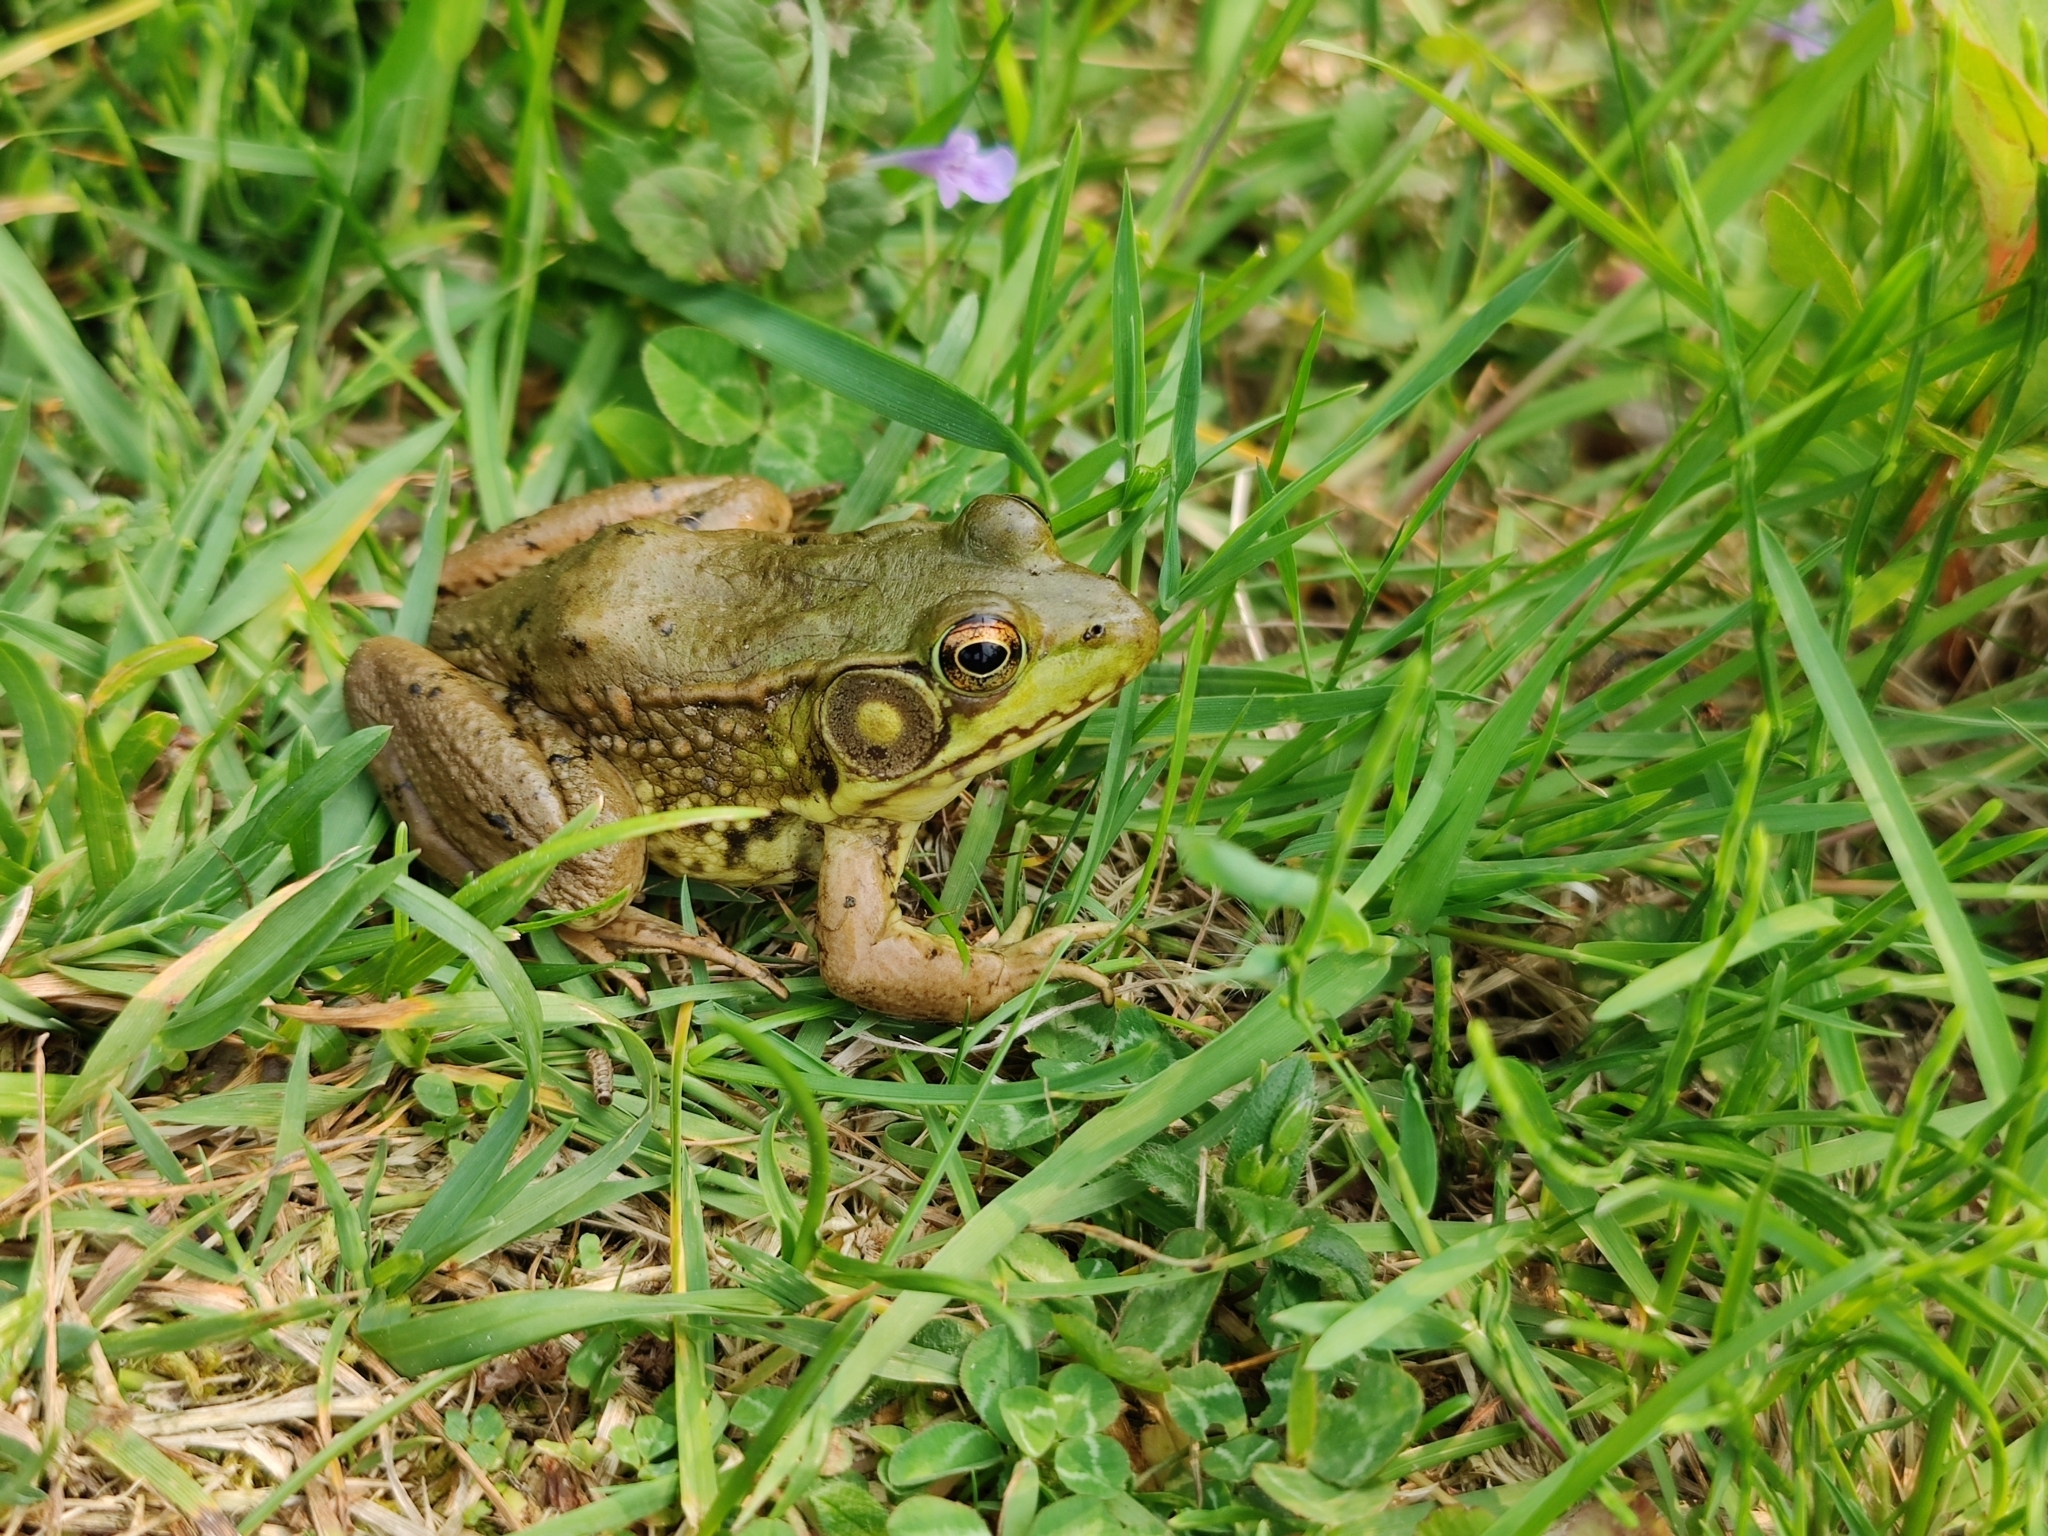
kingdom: Animalia
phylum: Chordata
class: Amphibia
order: Anura
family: Ranidae
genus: Lithobates
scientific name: Lithobates clamitans
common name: Green frog
